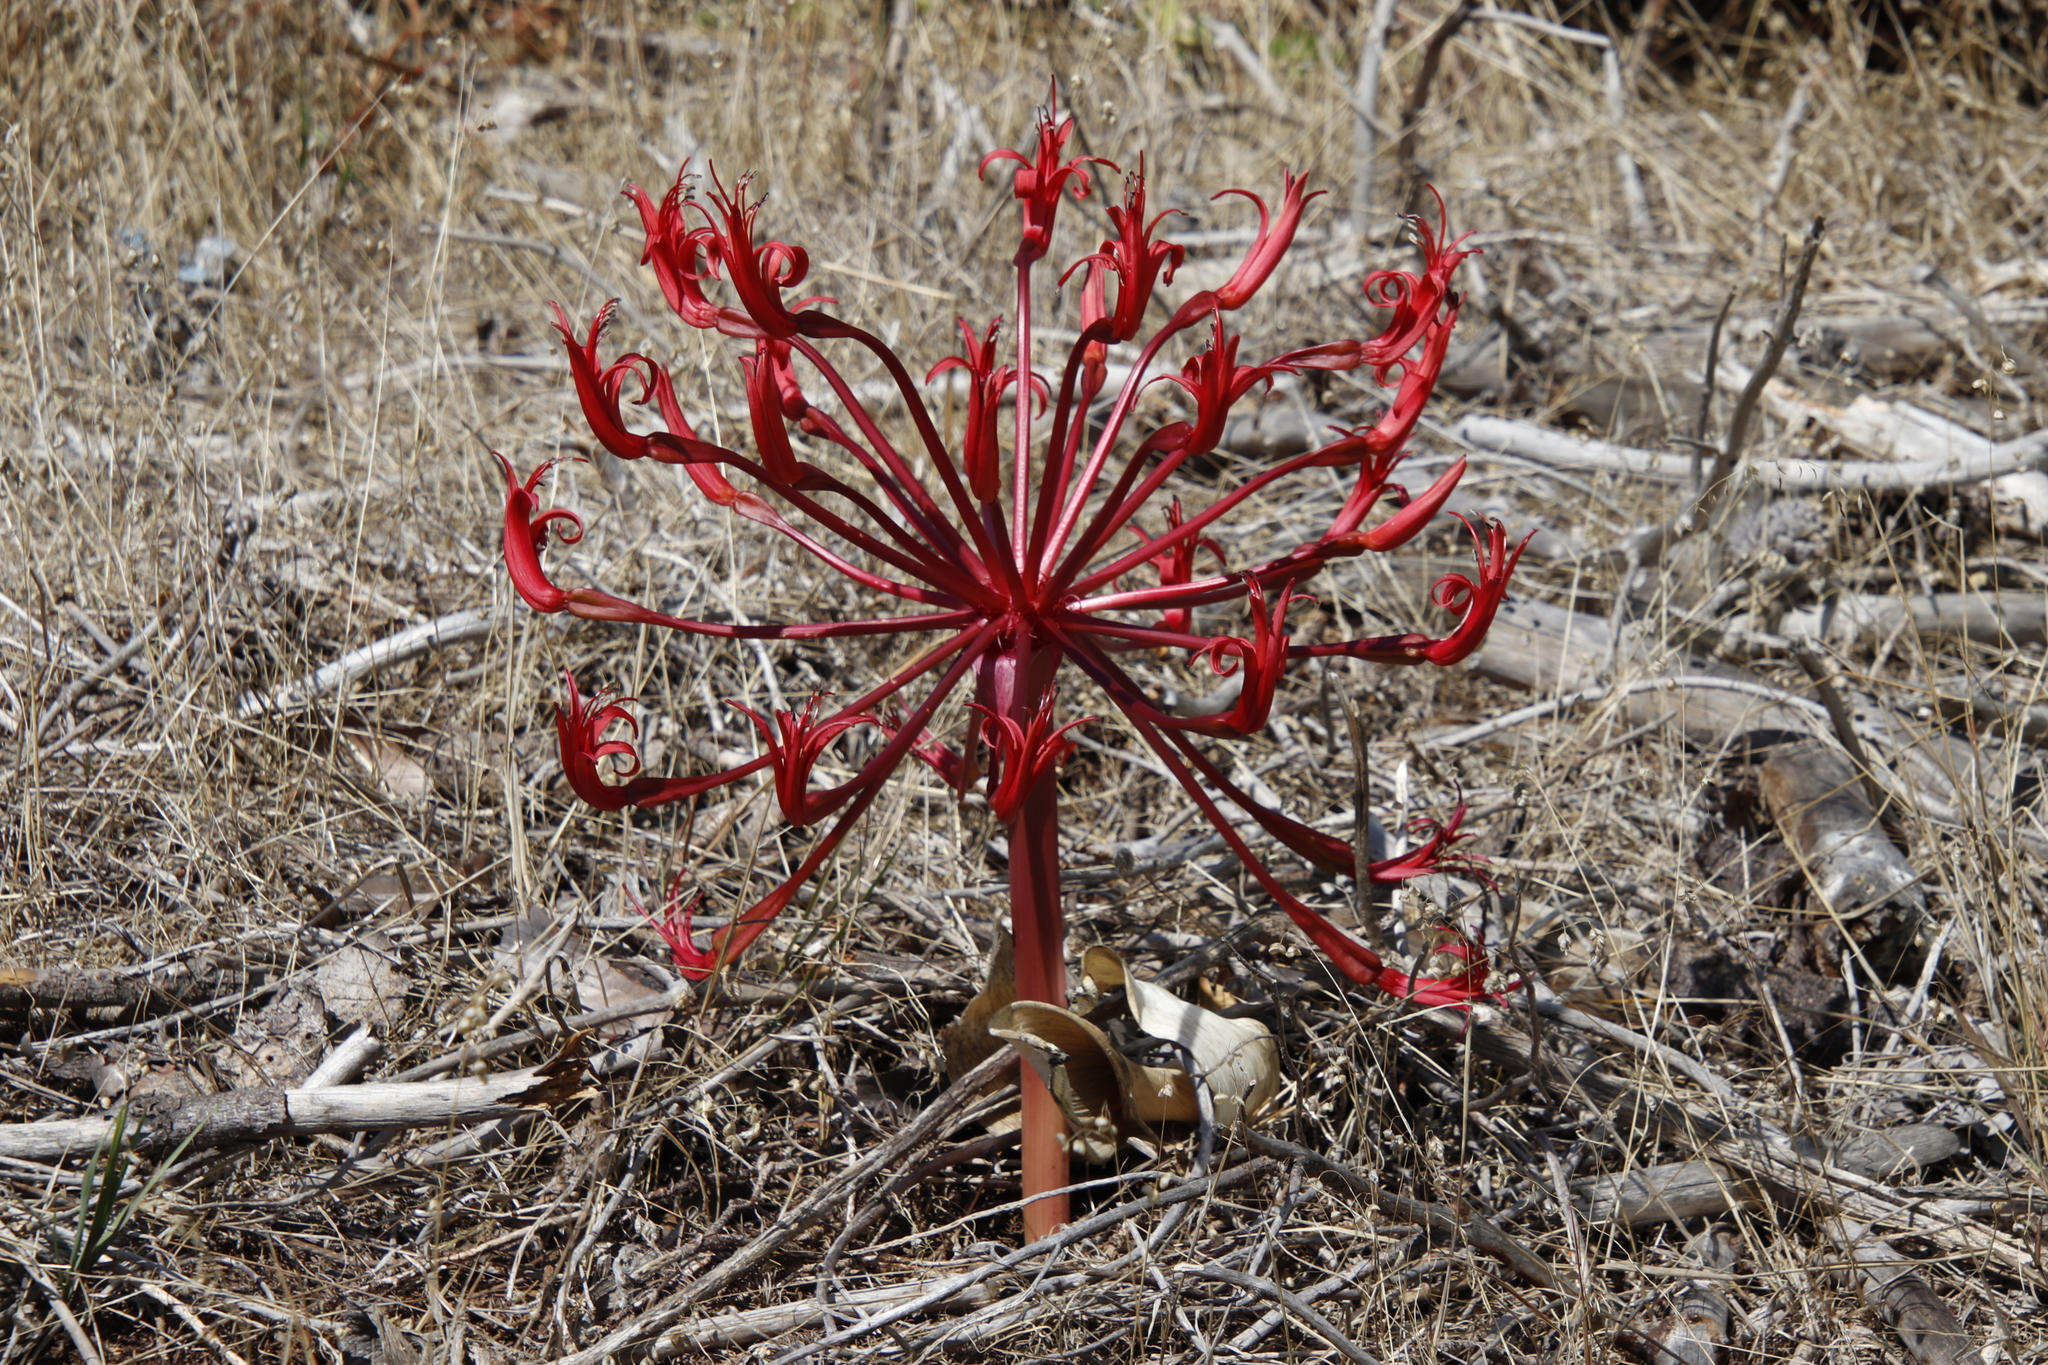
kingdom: Plantae
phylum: Tracheophyta
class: Liliopsida
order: Asparagales
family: Amaryllidaceae
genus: Brunsvigia
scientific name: Brunsvigia orientalis
